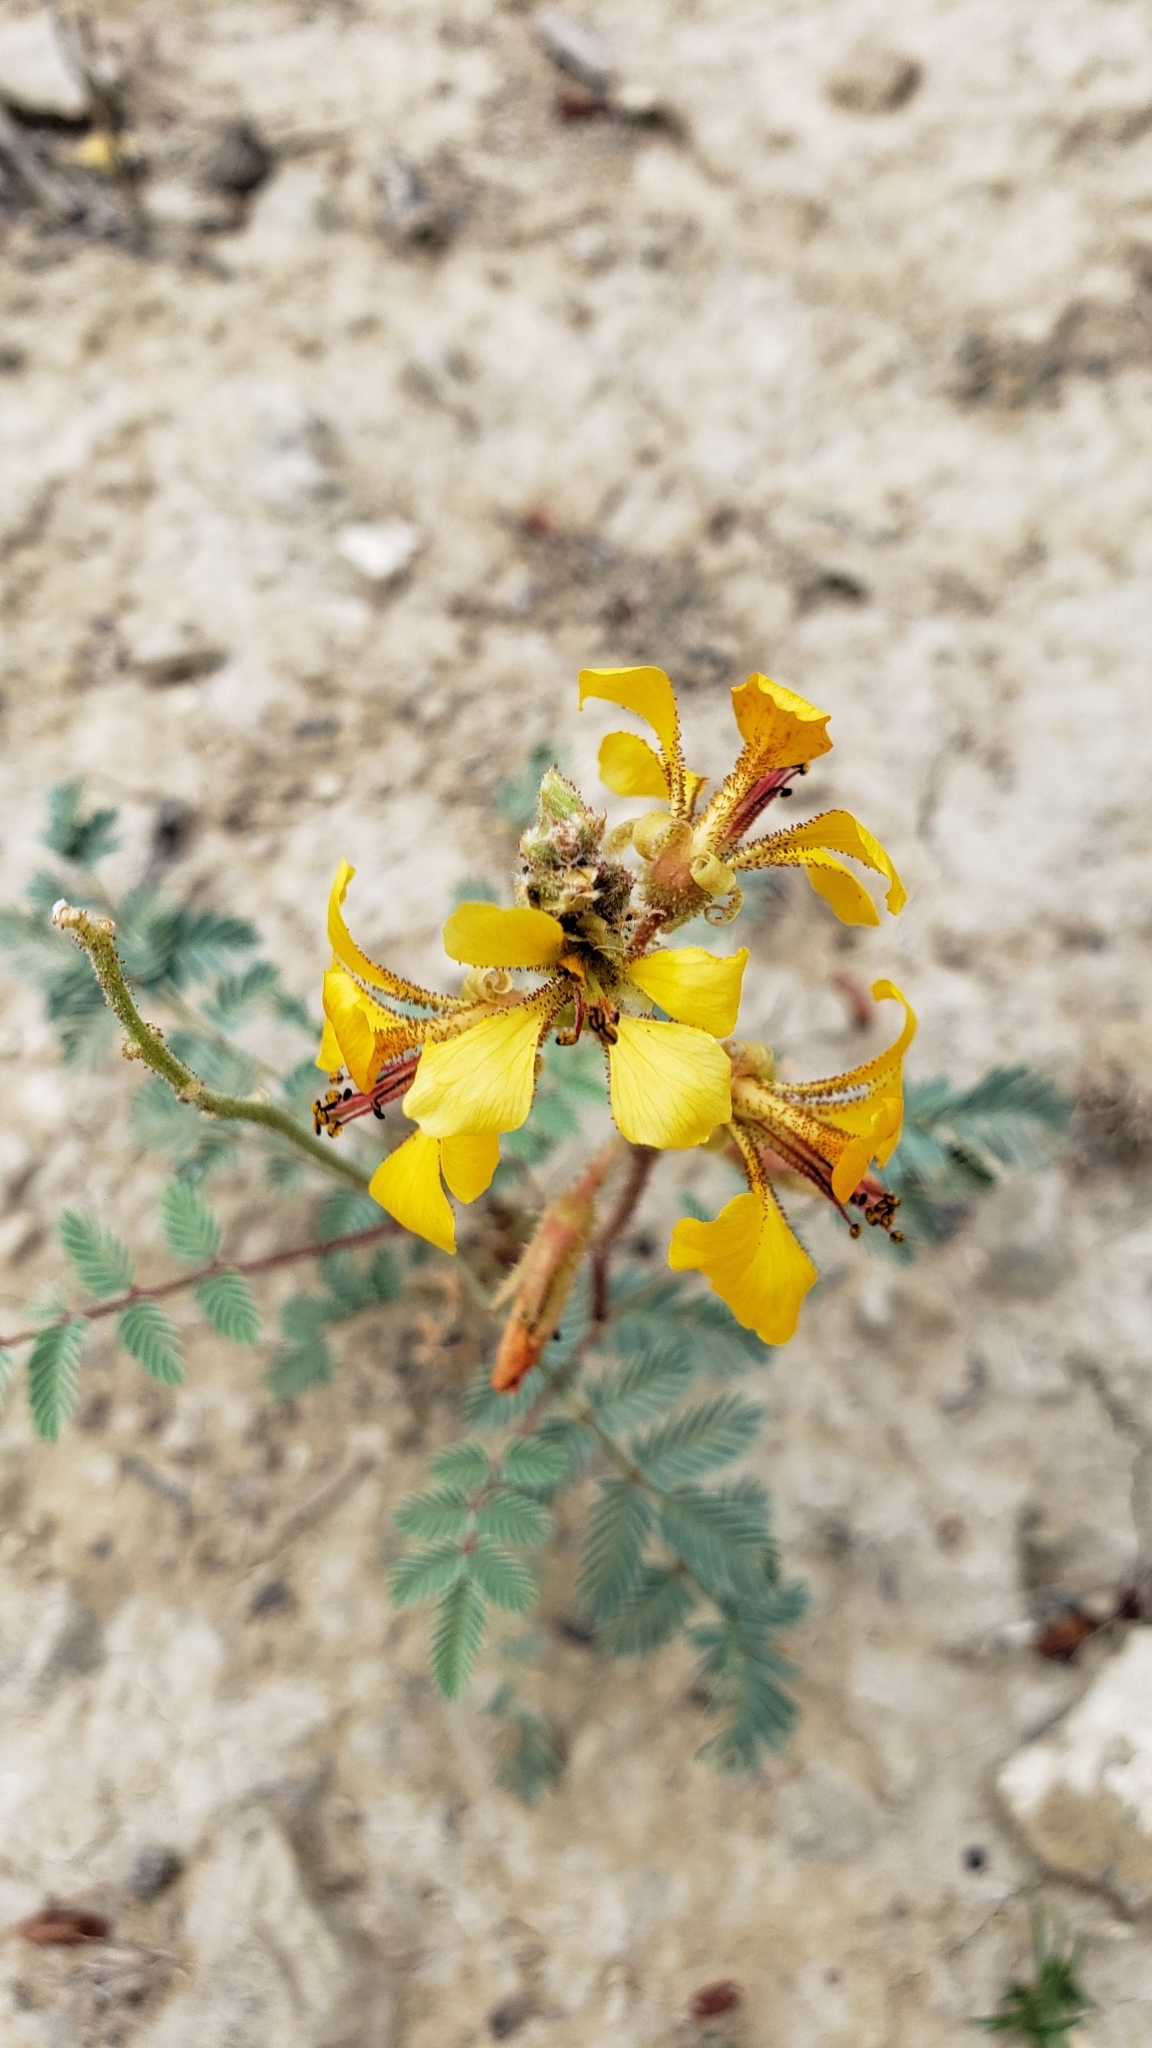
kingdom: Plantae
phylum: Tracheophyta
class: Magnoliopsida
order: Fabales
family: Fabaceae
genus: Hoffmannseggia
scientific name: Hoffmannseggia glauca
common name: Pignut
